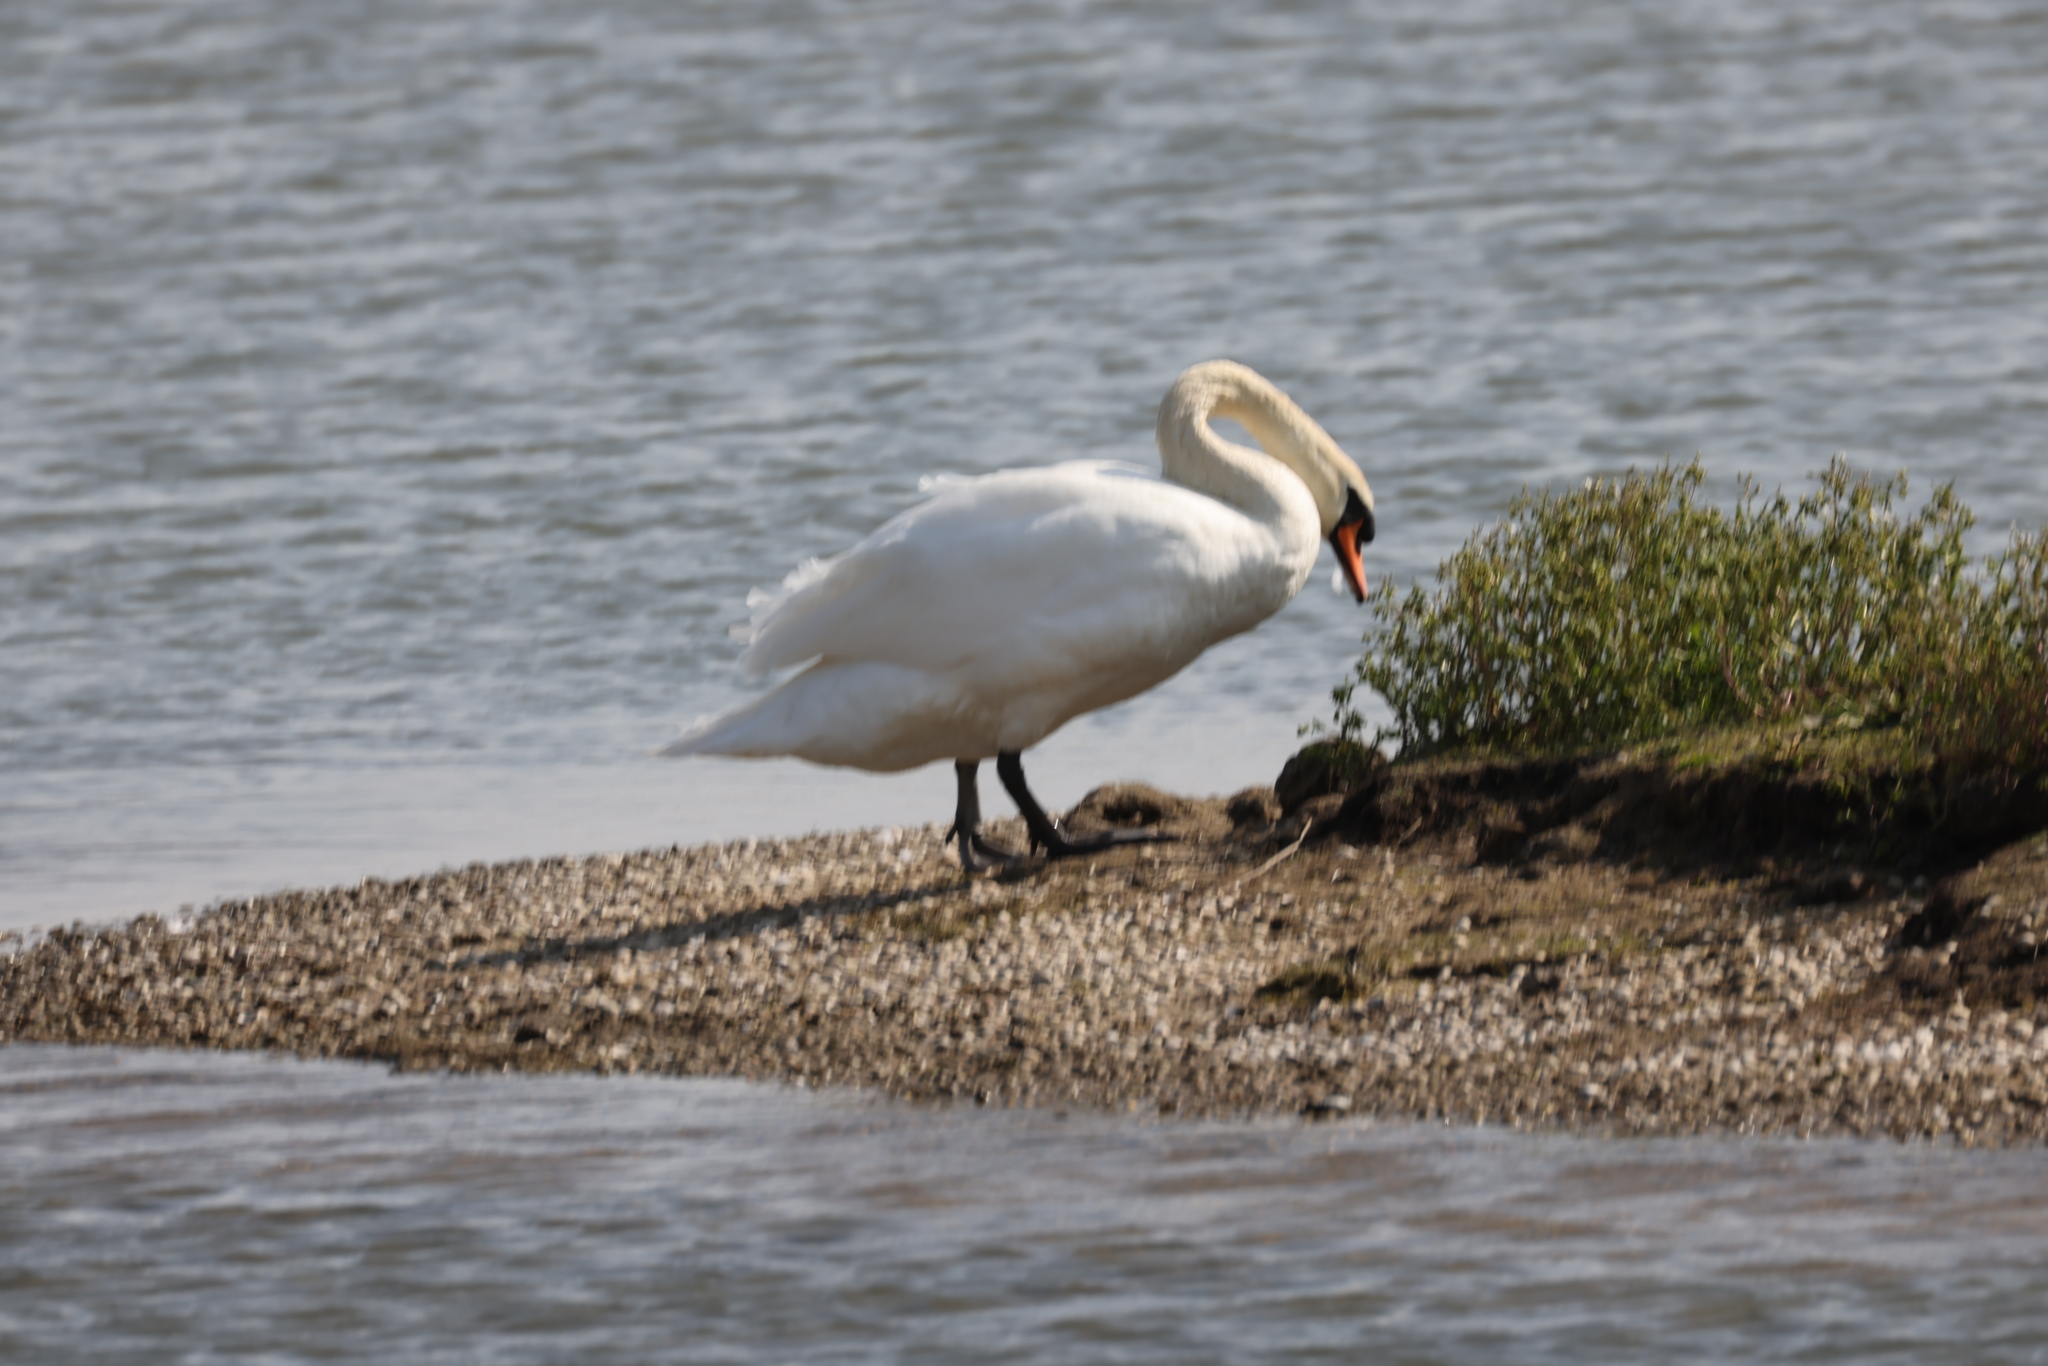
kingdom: Animalia
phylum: Chordata
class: Aves
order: Anseriformes
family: Anatidae
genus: Cygnus
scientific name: Cygnus olor
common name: Mute swan
